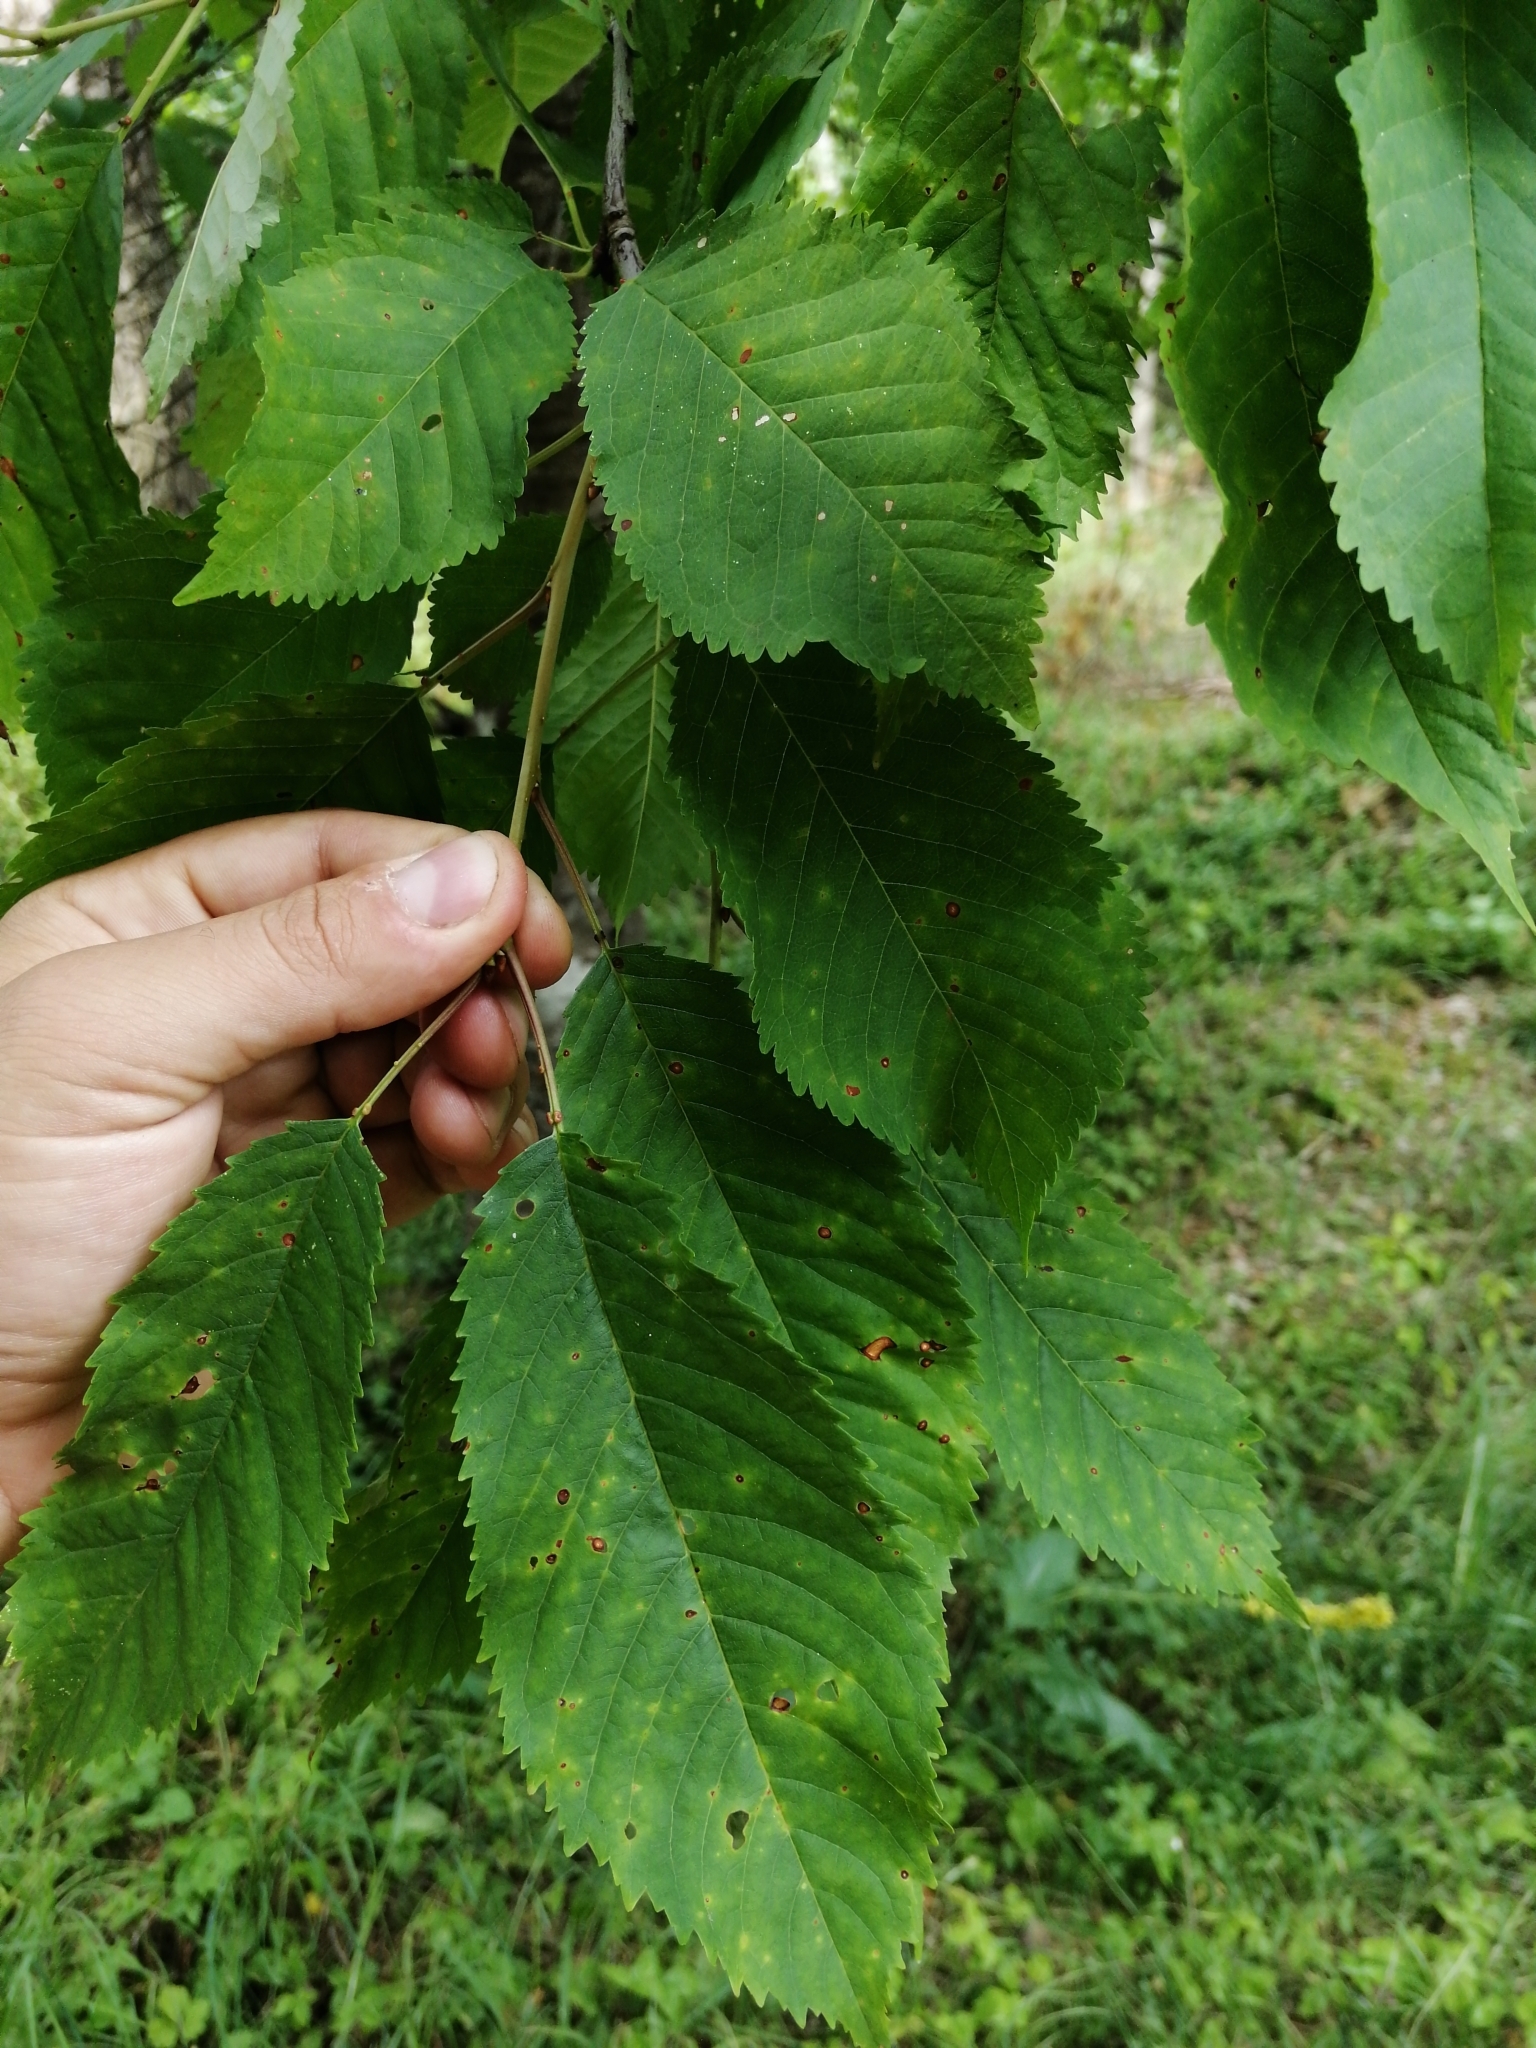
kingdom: Plantae
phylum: Tracheophyta
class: Magnoliopsida
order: Rosales
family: Rosaceae
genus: Prunus
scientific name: Prunus avium
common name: Sweet cherry
